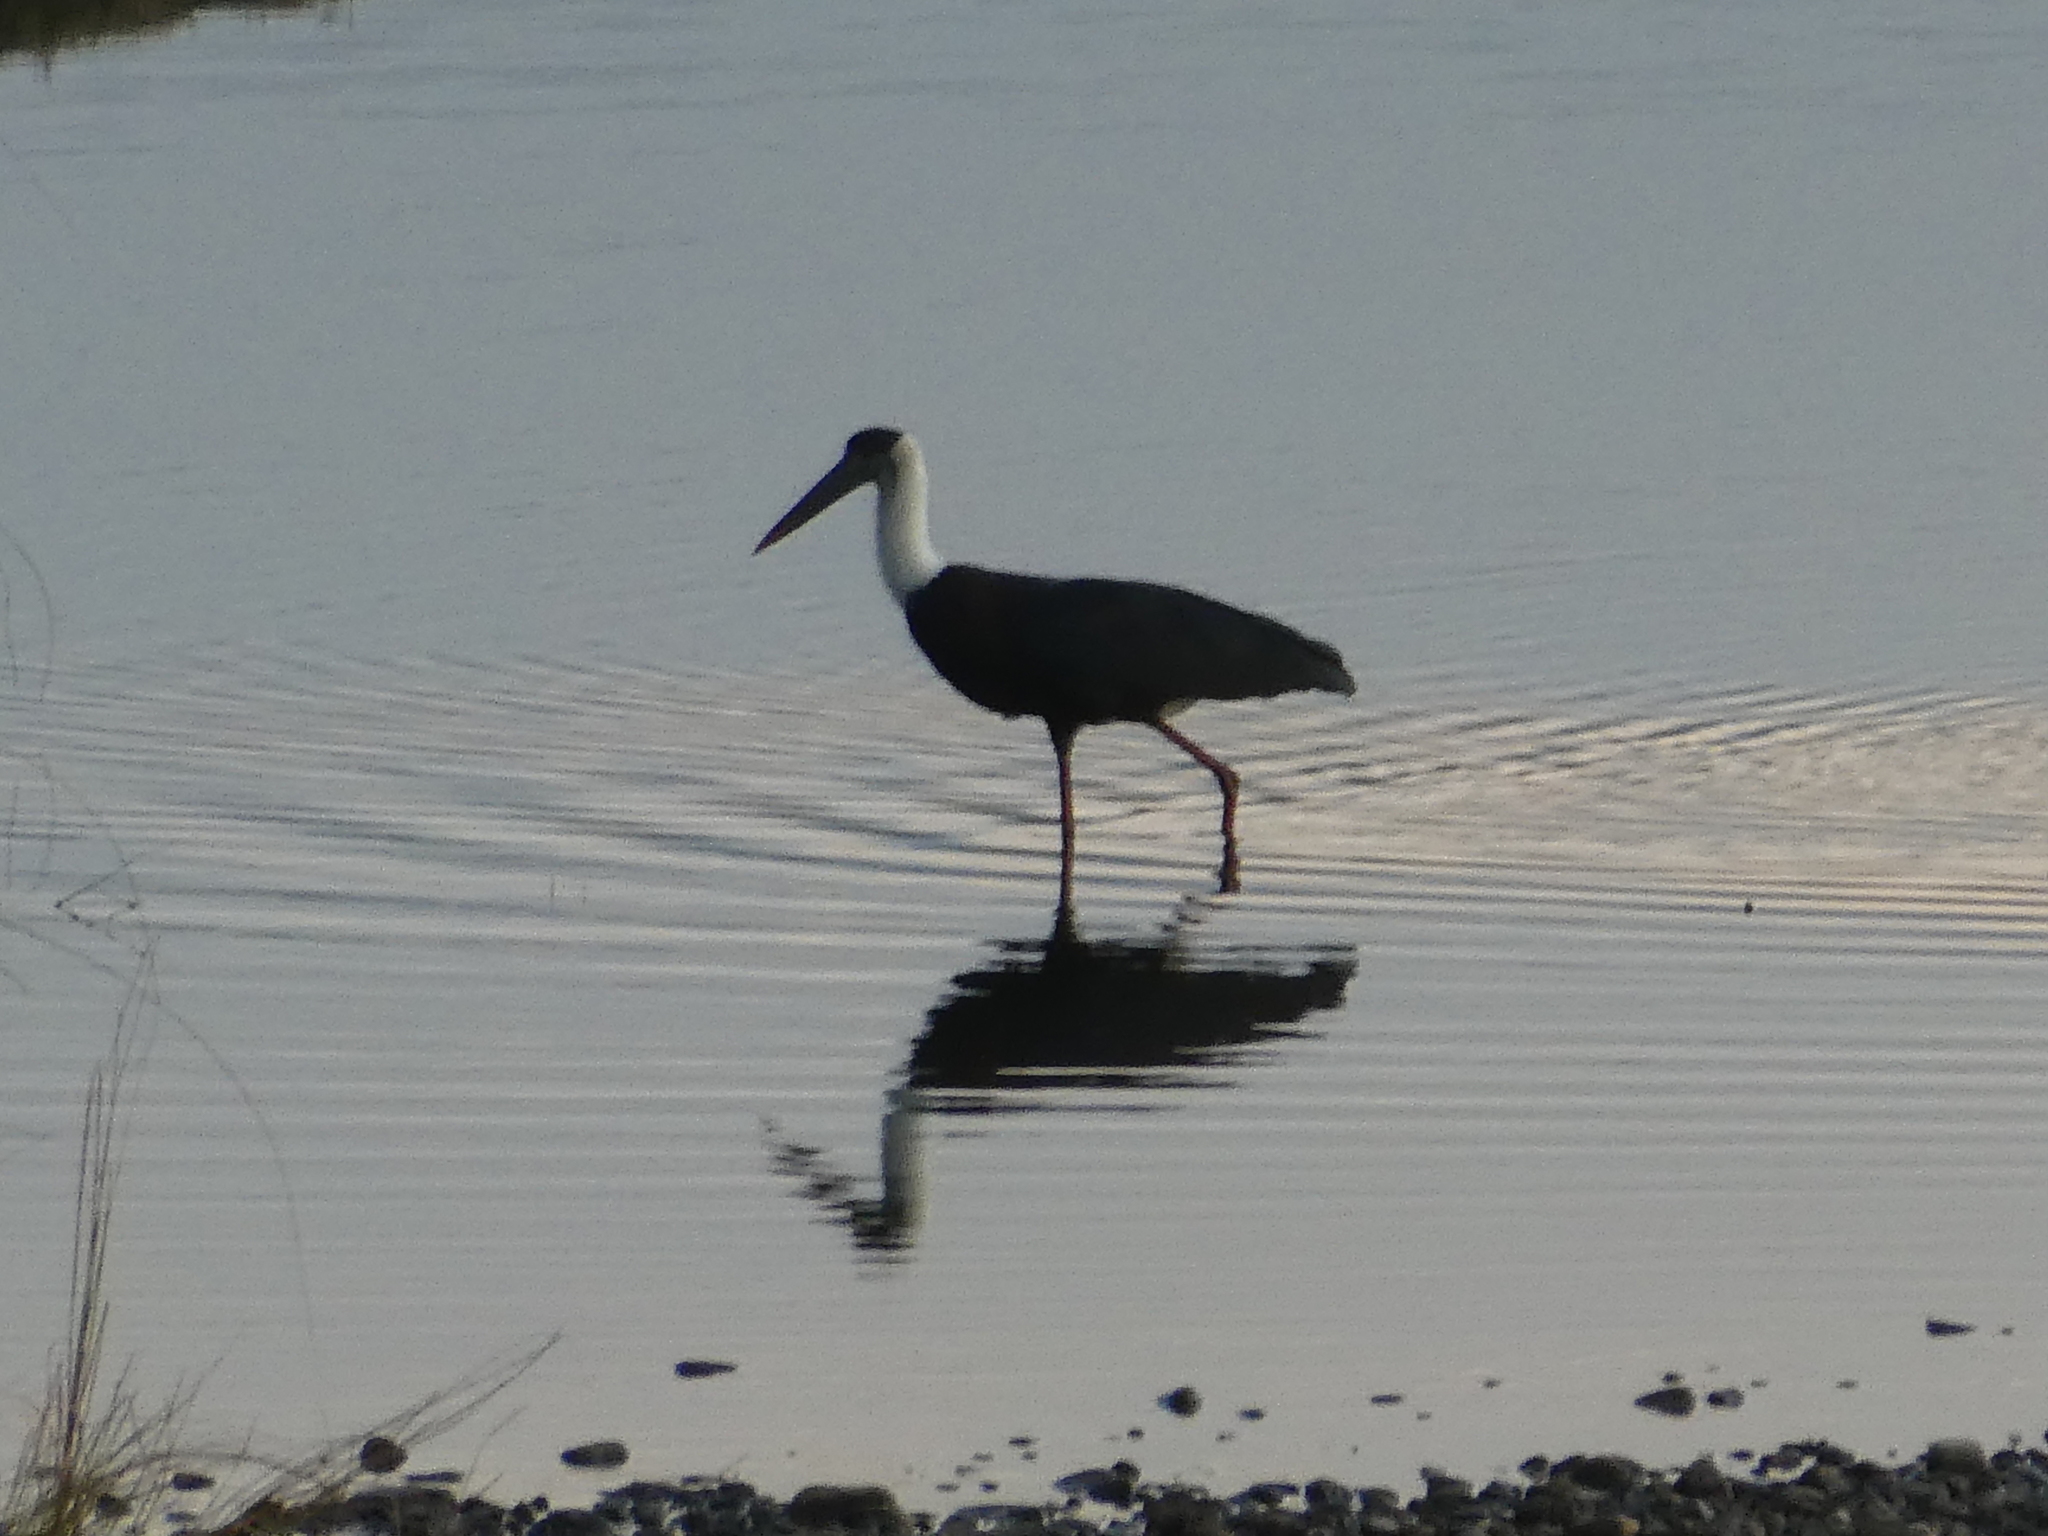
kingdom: Animalia
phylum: Chordata
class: Aves
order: Ciconiiformes
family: Ciconiidae
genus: Ciconia
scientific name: Ciconia episcopus
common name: Woolly-necked stork
